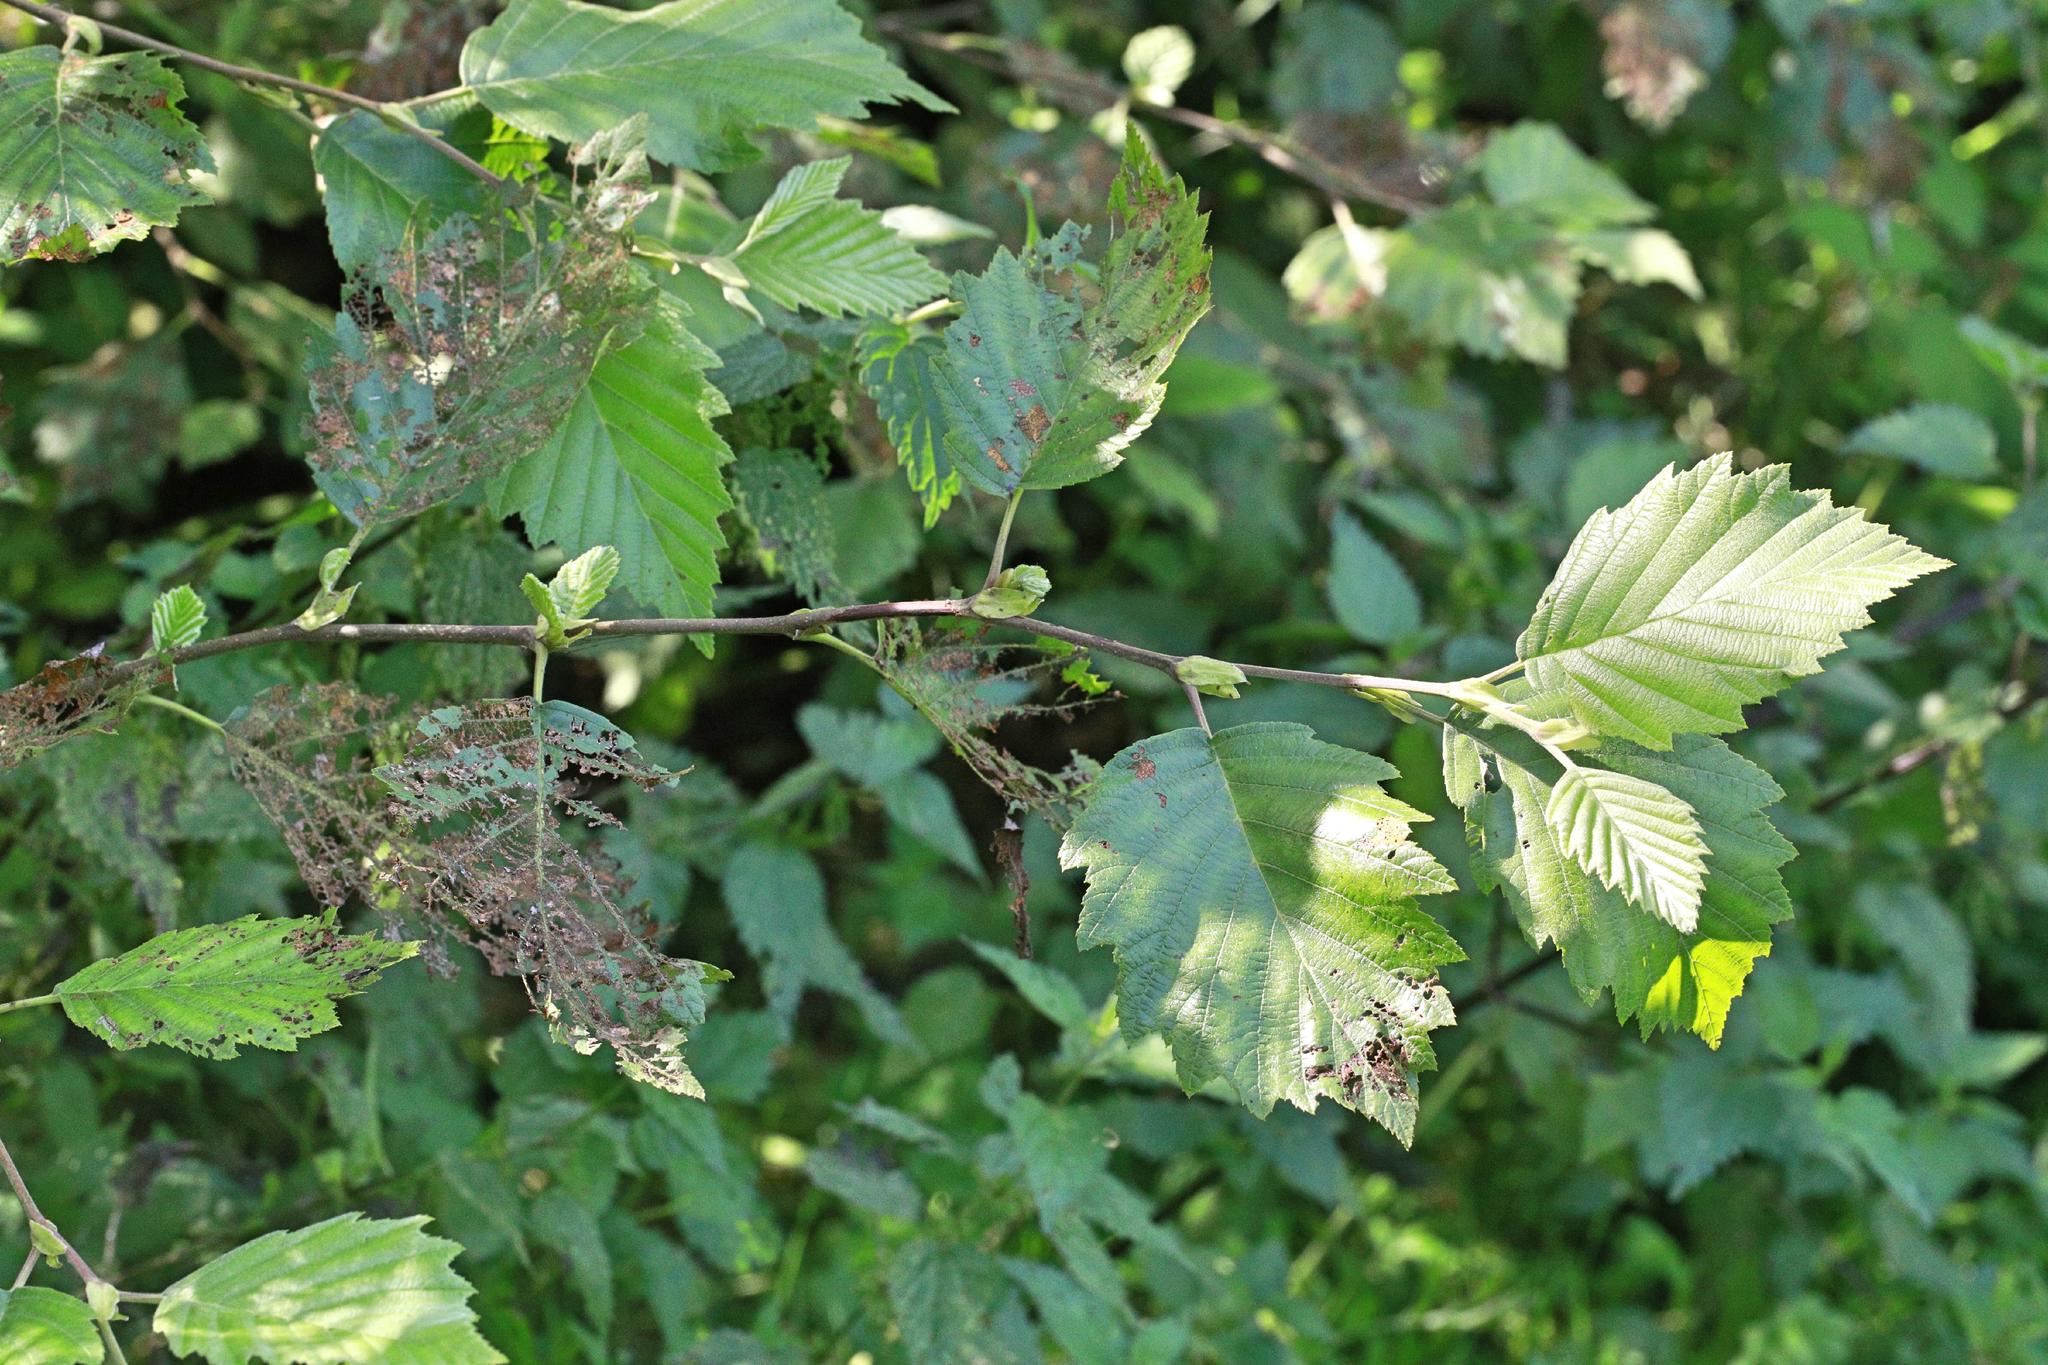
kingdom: Plantae
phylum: Tracheophyta
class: Magnoliopsida
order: Fagales
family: Betulaceae
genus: Alnus
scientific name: Alnus incana
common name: Grey alder
